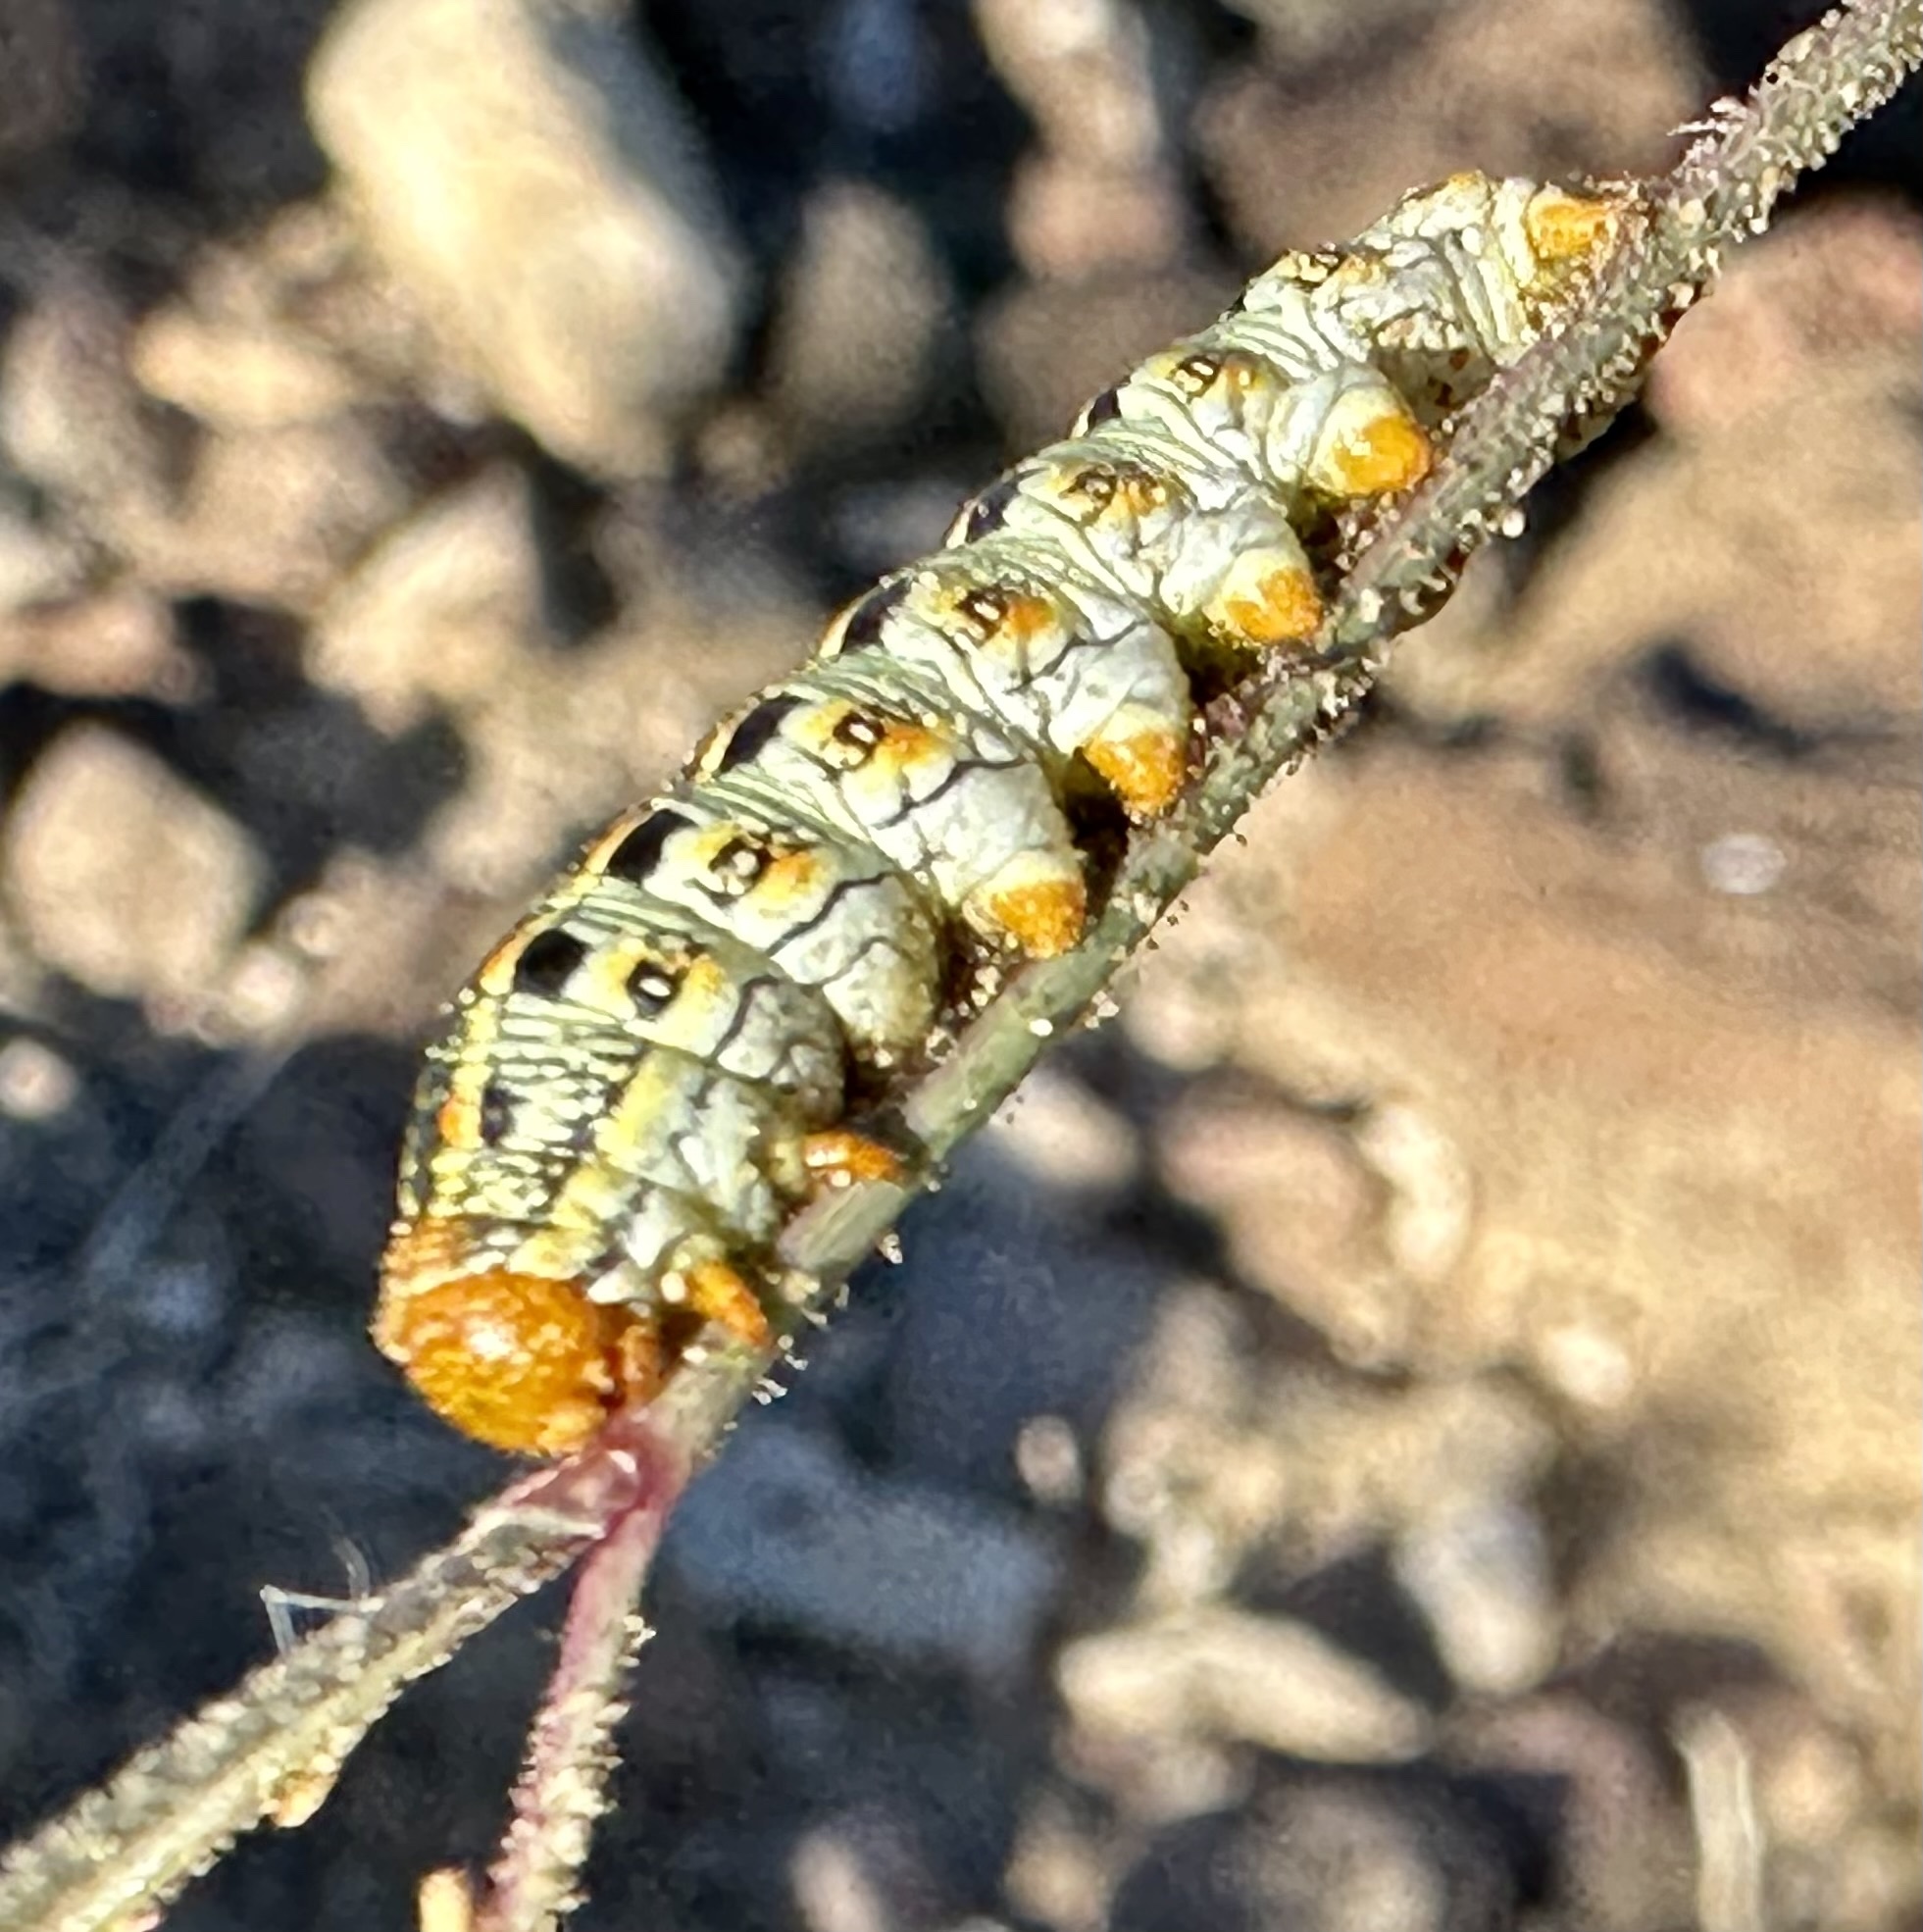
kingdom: Animalia
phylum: Arthropoda
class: Insecta
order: Lepidoptera
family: Sphingidae
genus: Hyles
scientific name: Hyles lineata
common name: White-lined sphinx
